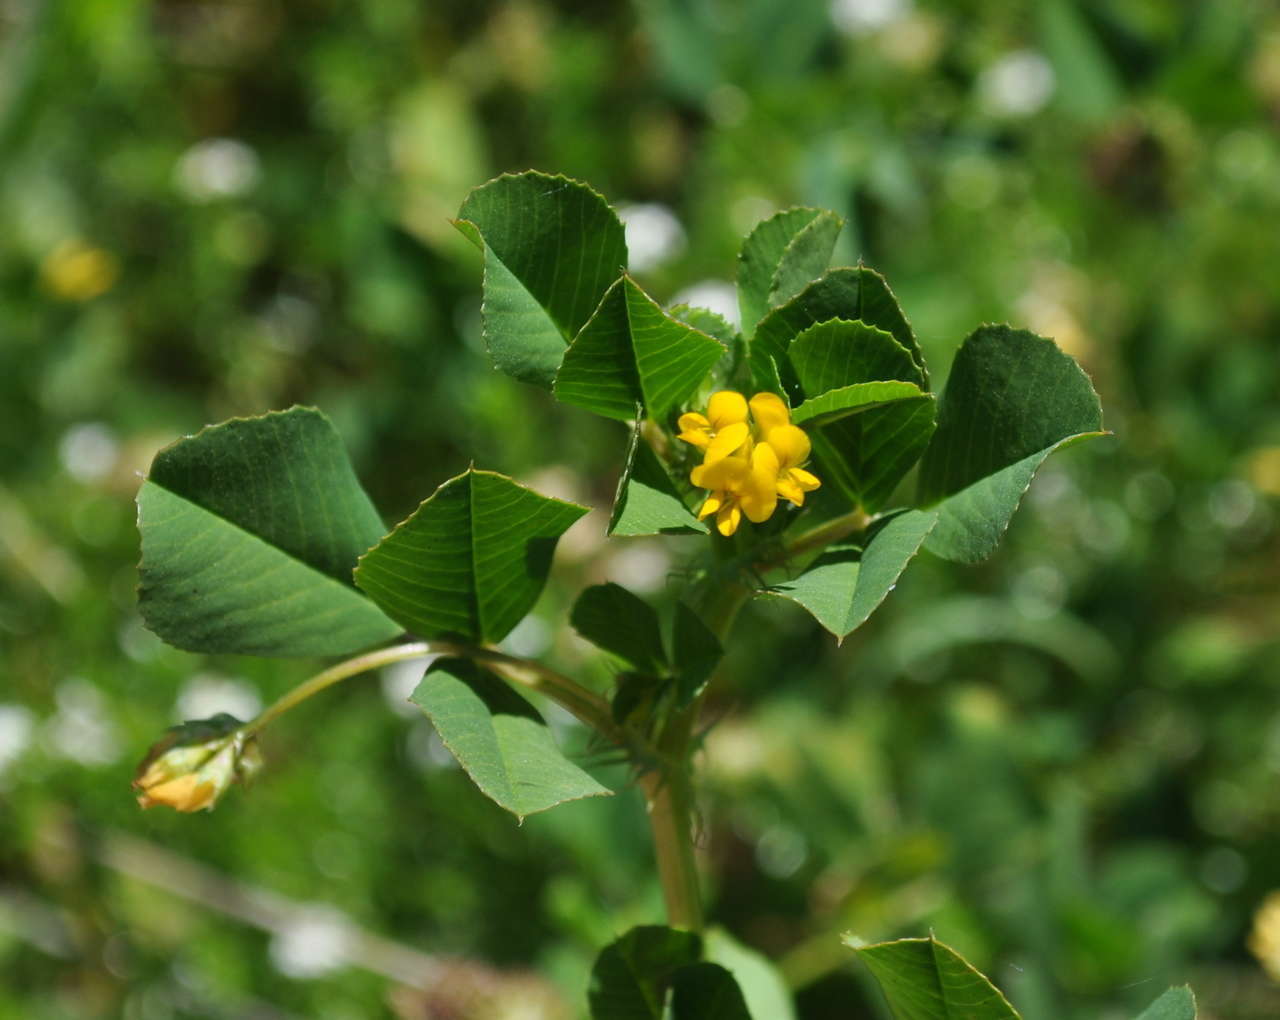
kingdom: Plantae
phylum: Tracheophyta
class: Magnoliopsida
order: Fabales
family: Fabaceae
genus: Medicago
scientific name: Medicago polymorpha
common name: Burclover
